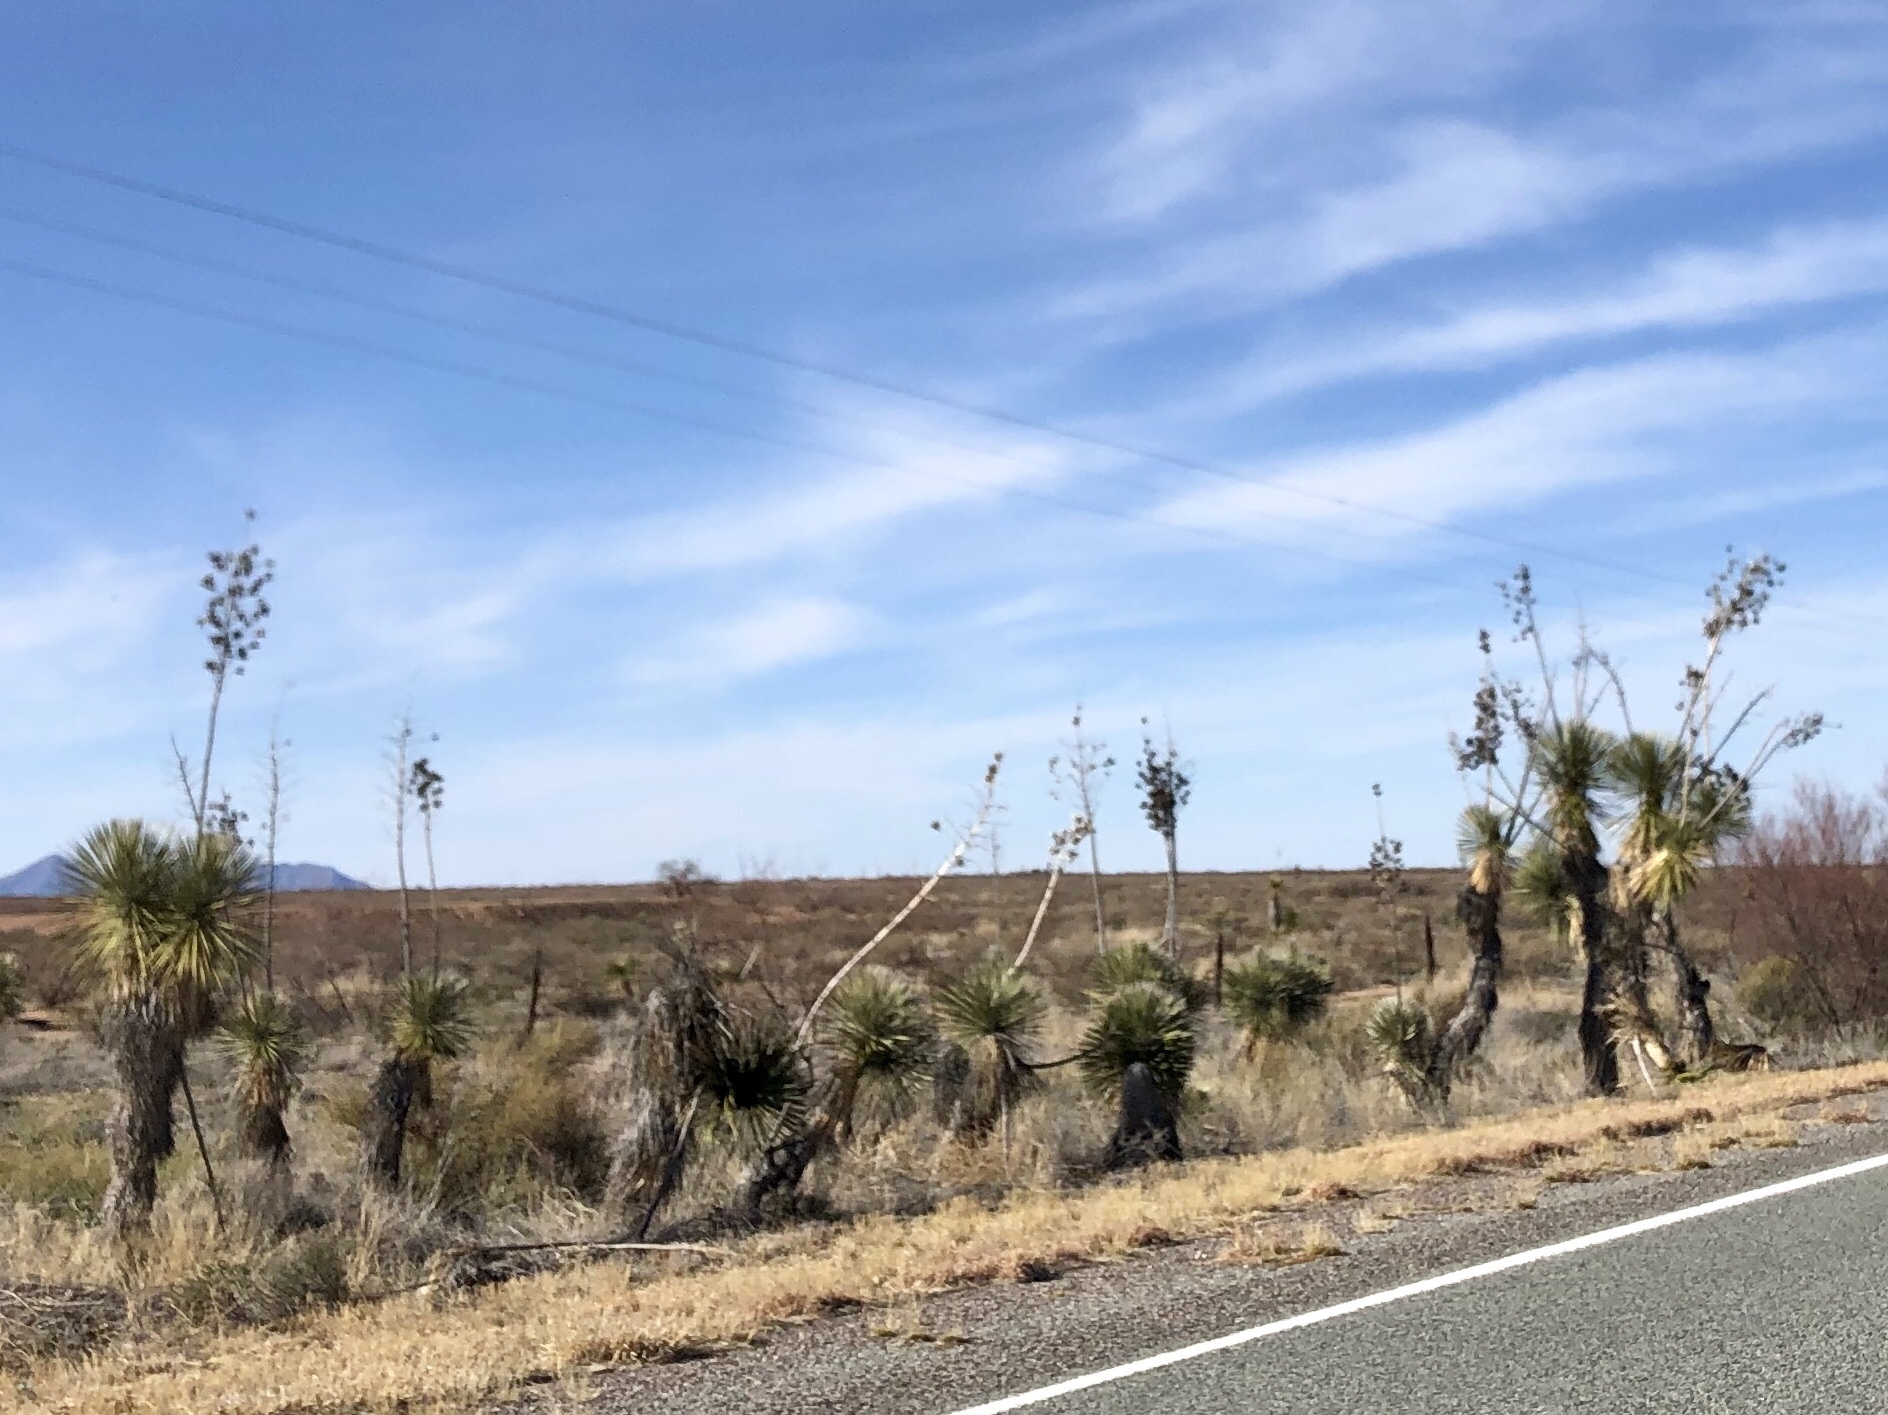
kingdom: Plantae
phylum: Tracheophyta
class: Liliopsida
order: Asparagales
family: Asparagaceae
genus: Yucca
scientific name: Yucca elata
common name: Palmella
